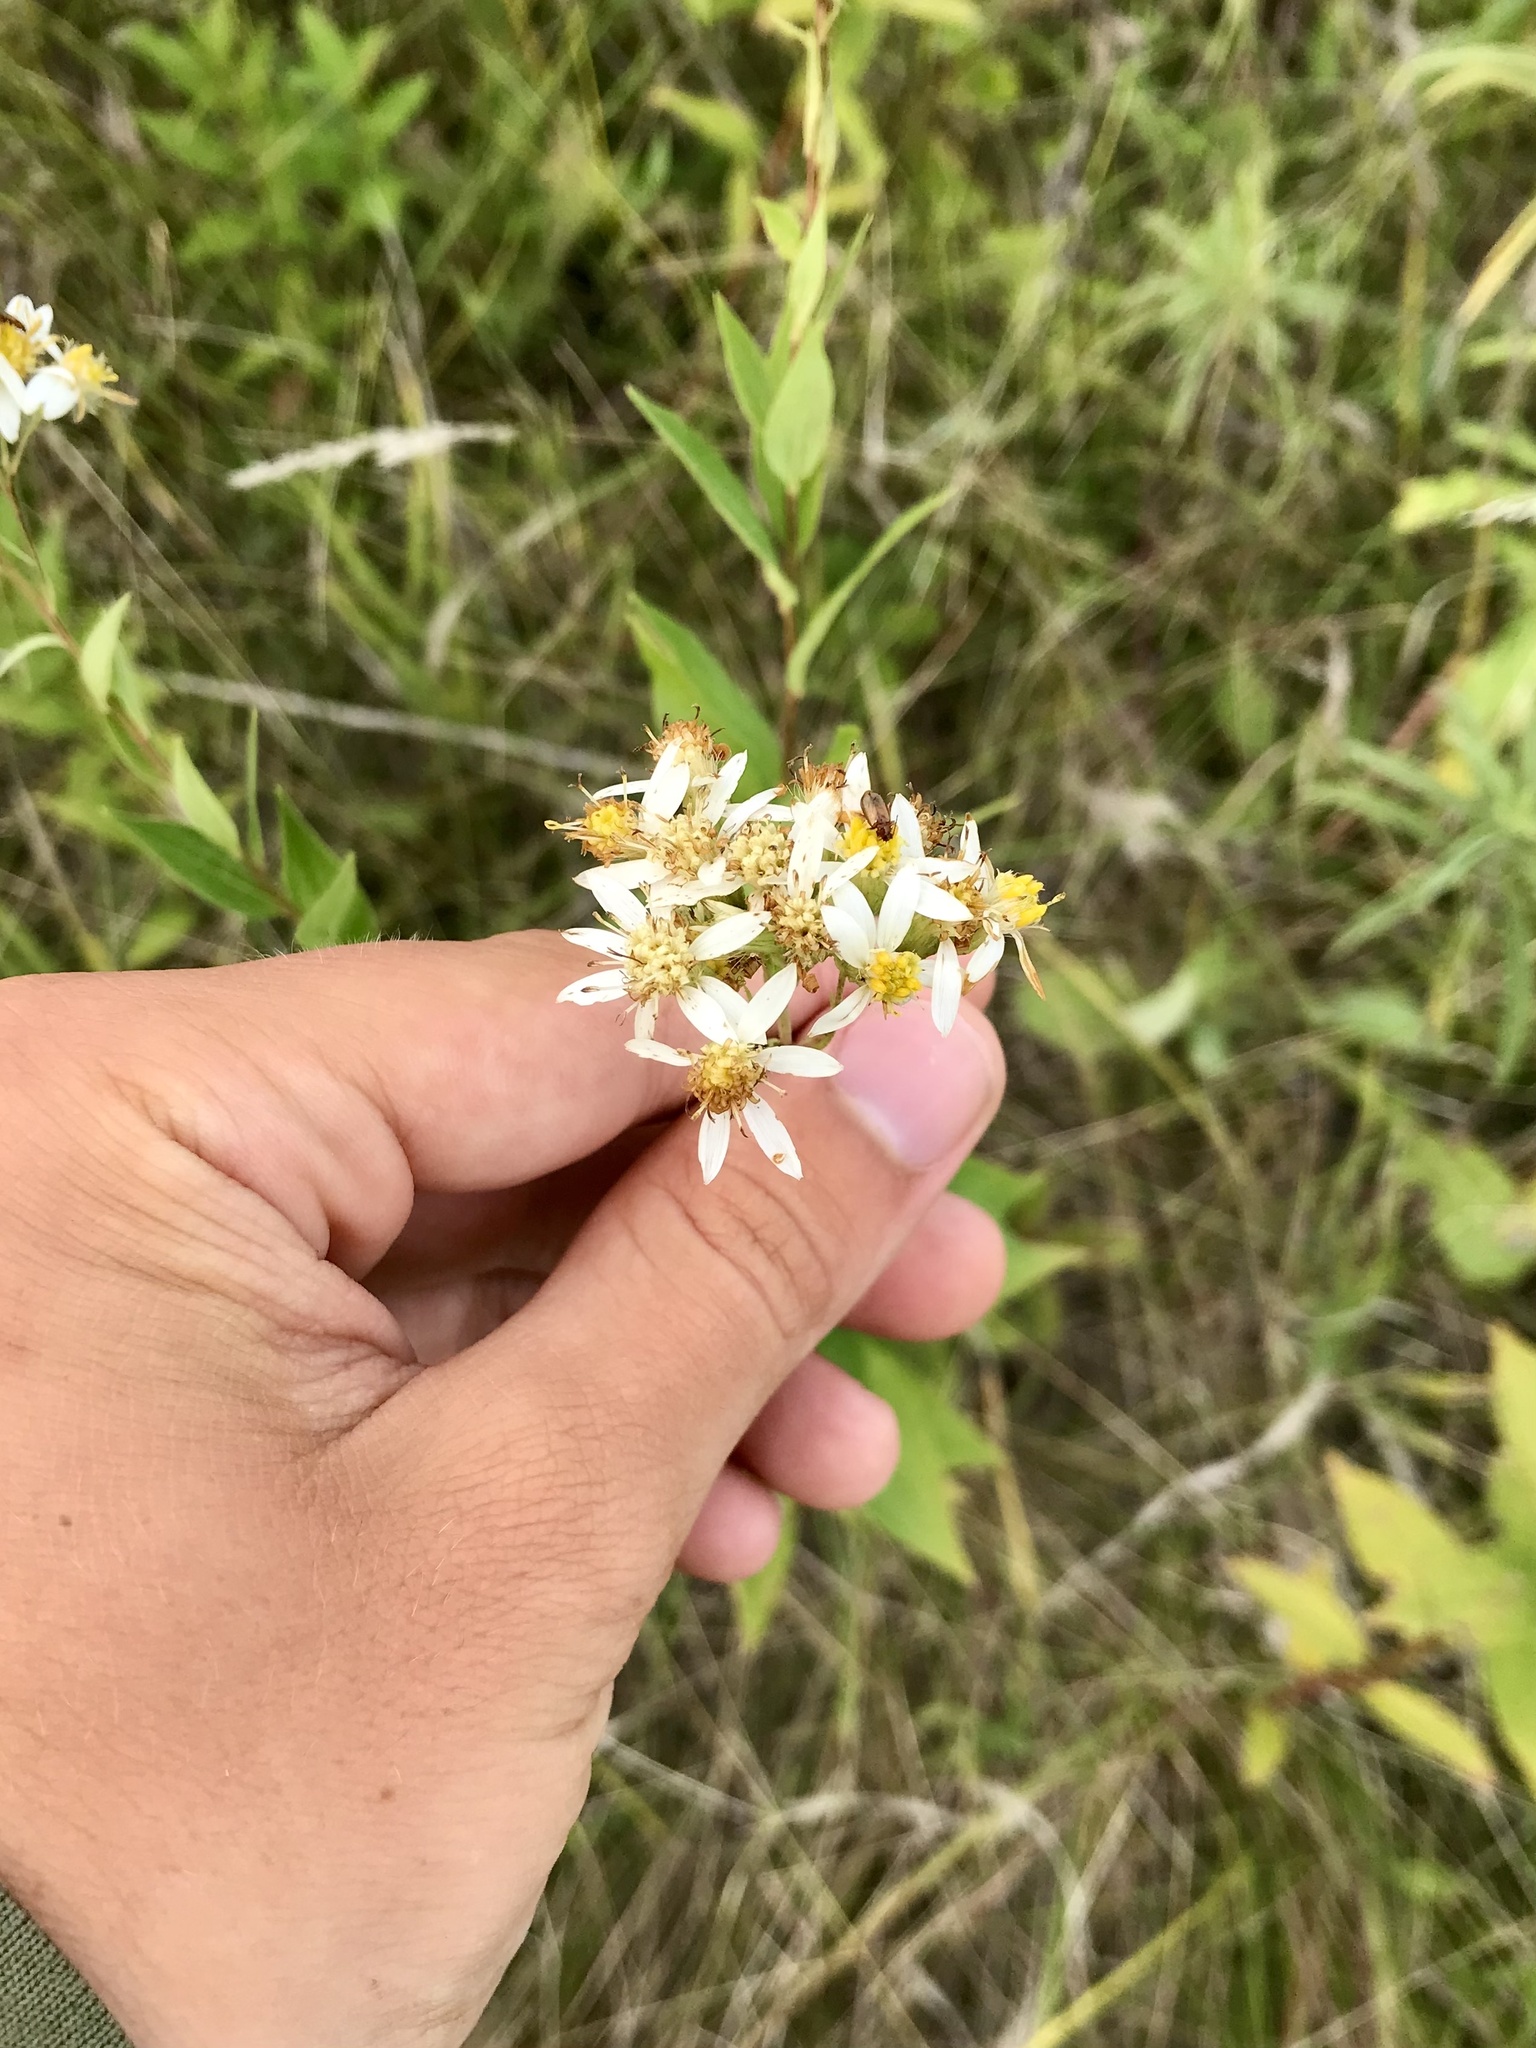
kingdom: Plantae
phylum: Tracheophyta
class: Magnoliopsida
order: Asterales
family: Asteraceae
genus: Doellingeria
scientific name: Doellingeria umbellata
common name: Flat-top white aster
